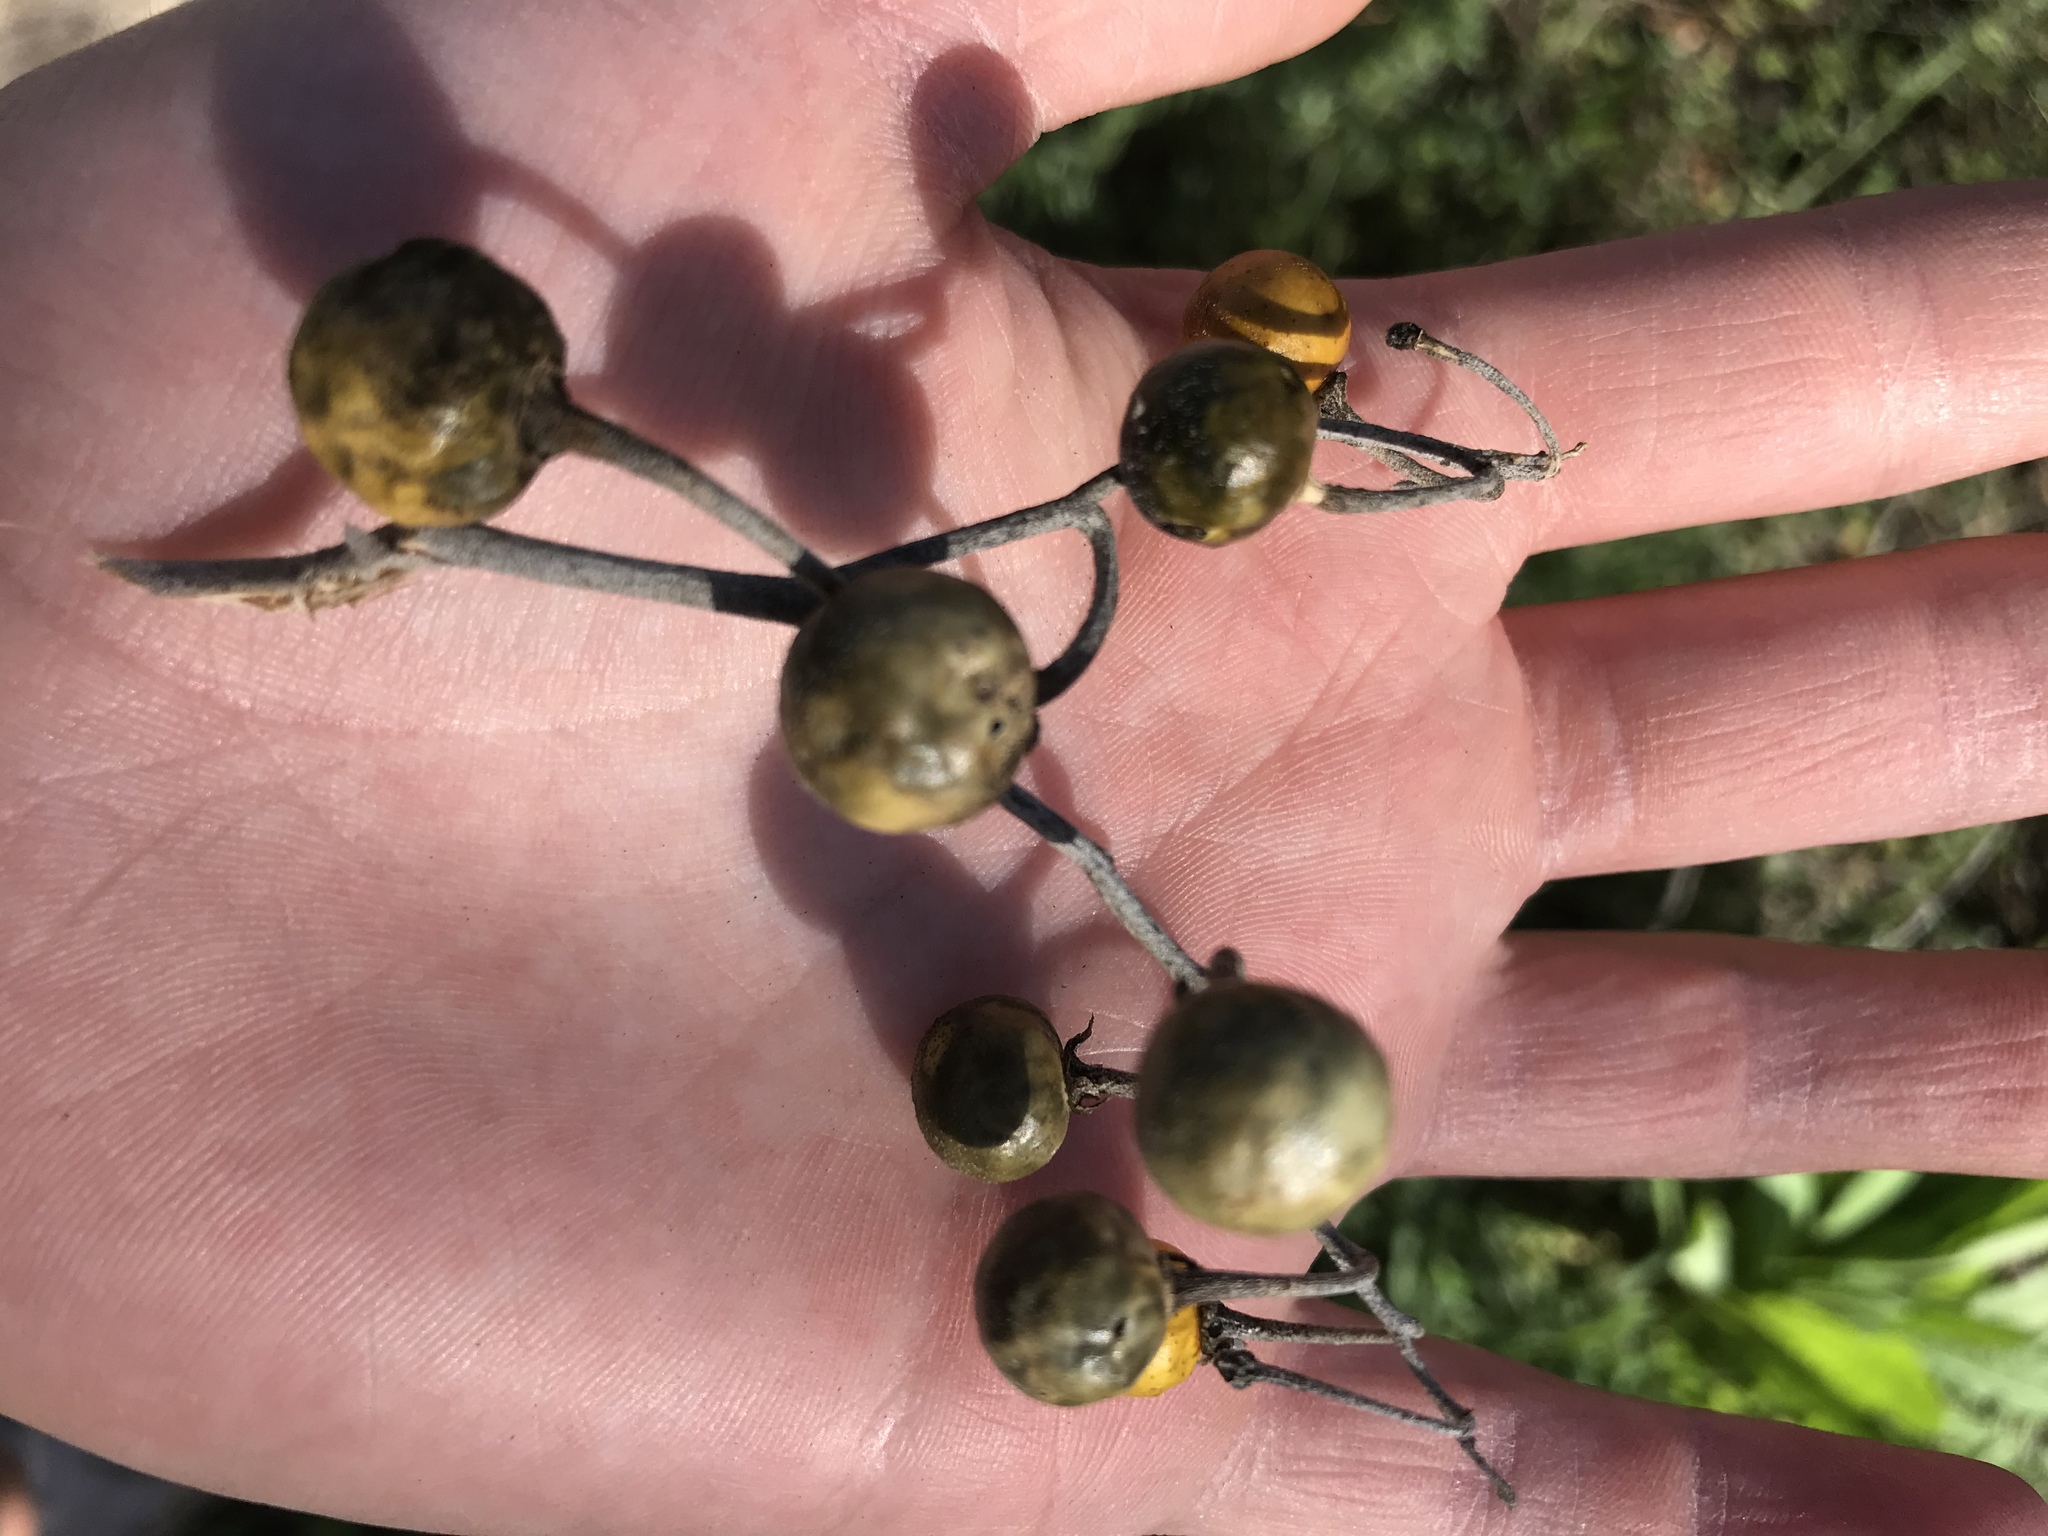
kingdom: Plantae
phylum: Tracheophyta
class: Magnoliopsida
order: Solanales
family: Solanaceae
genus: Solanum
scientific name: Solanum elaeagnifolium
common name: Silverleaf nightshade
